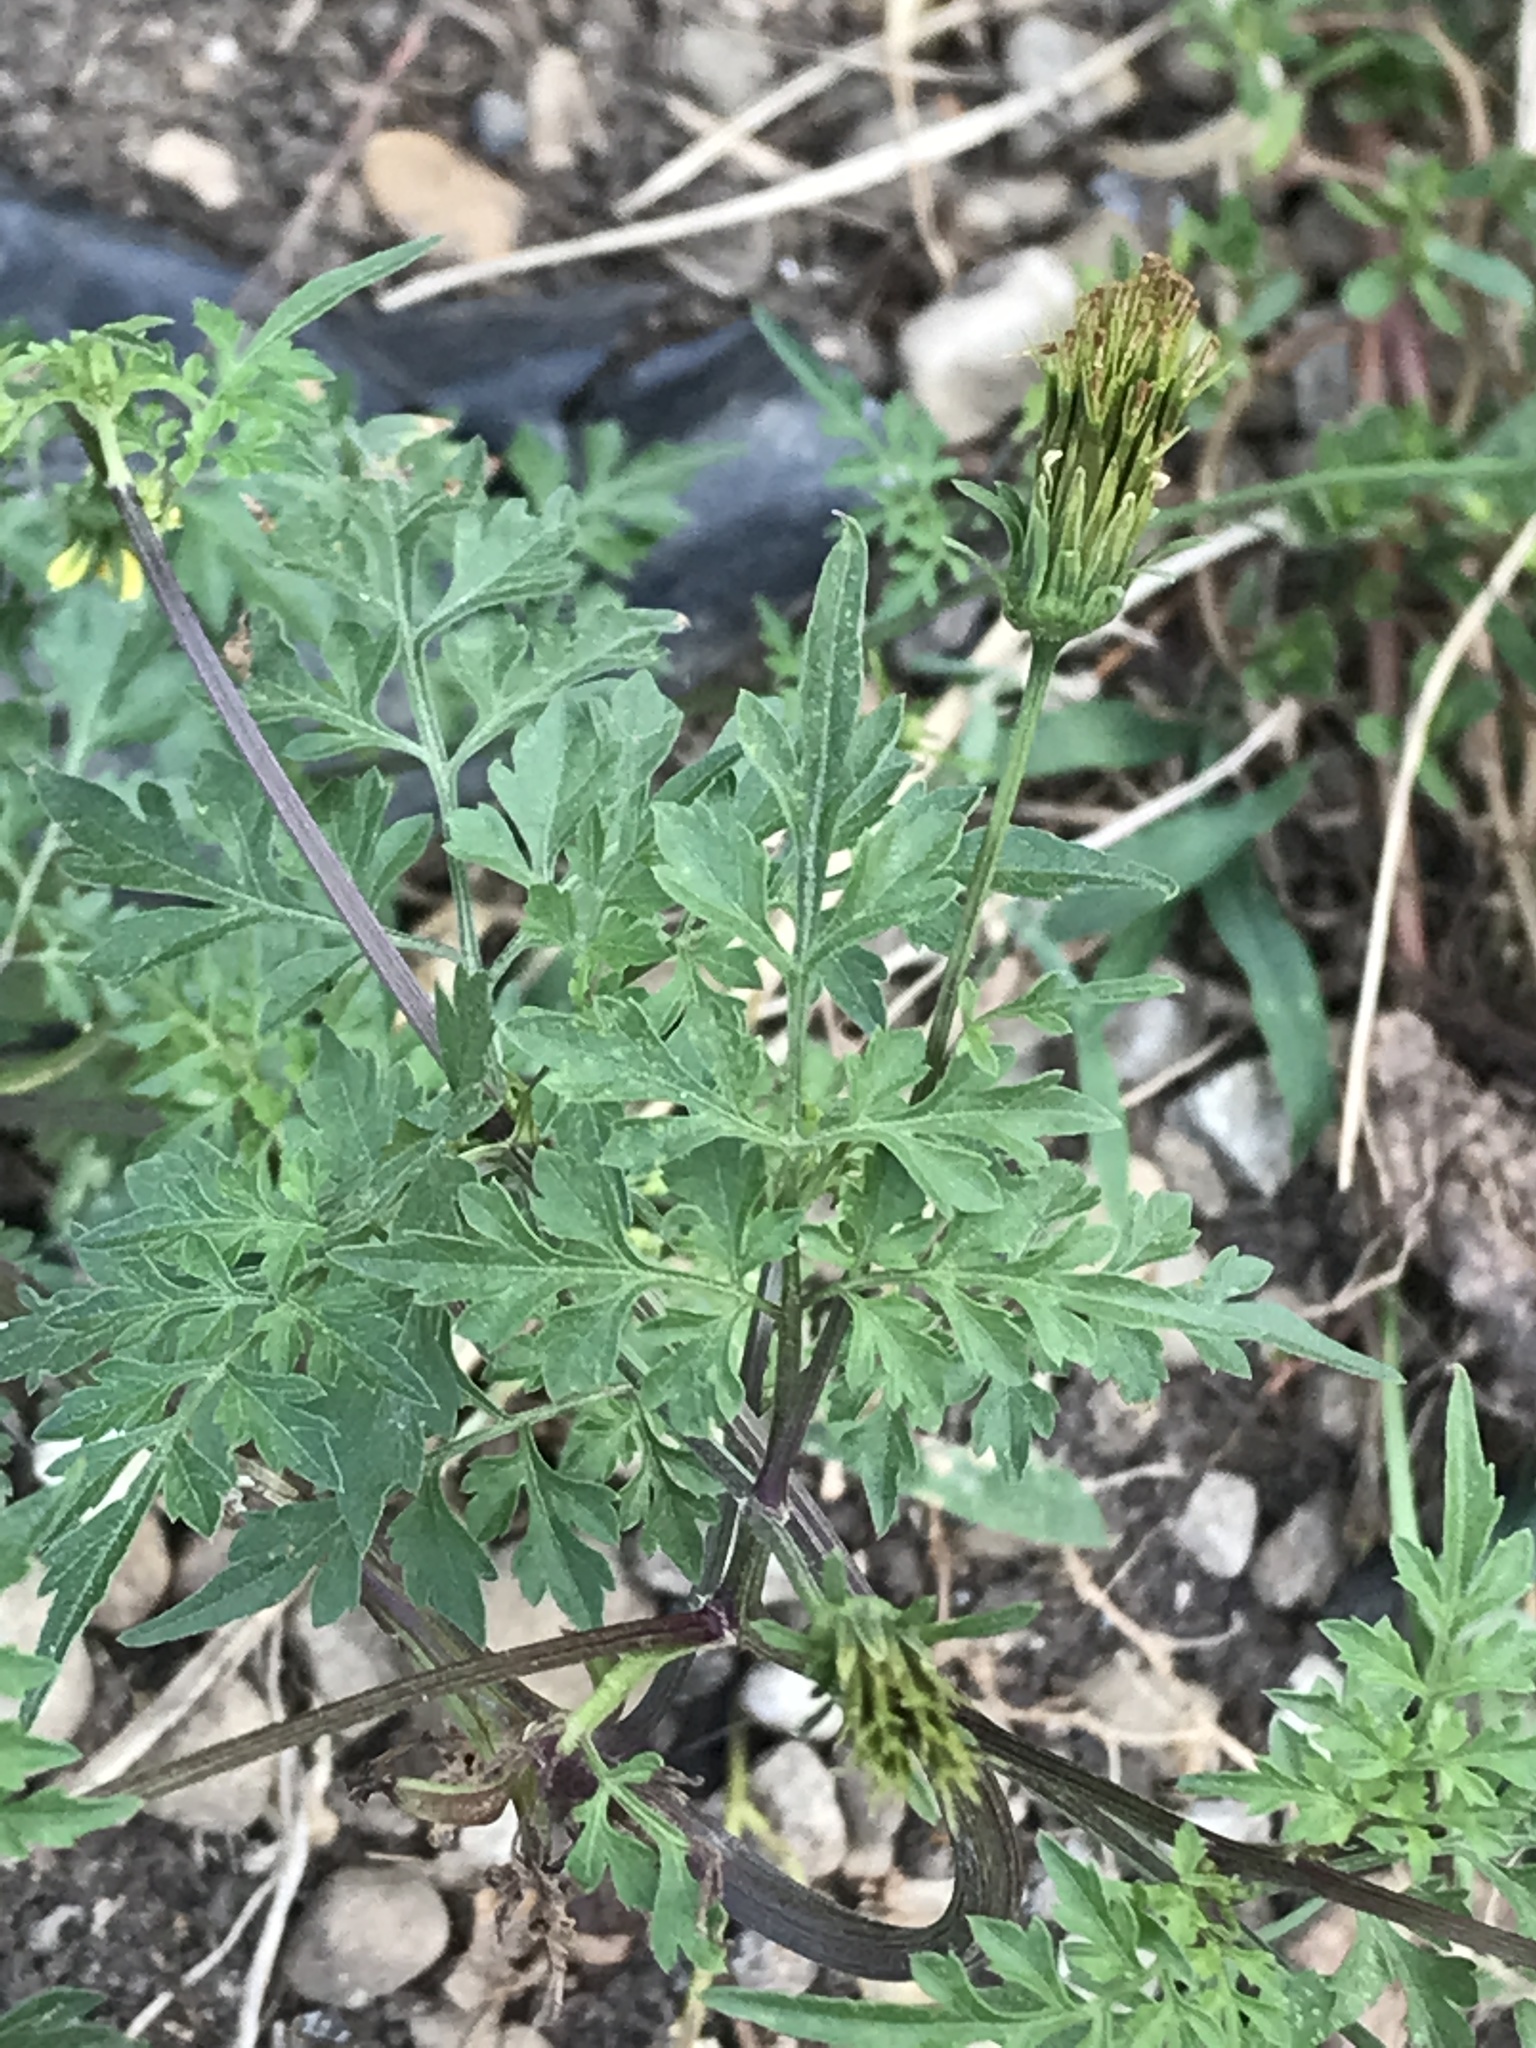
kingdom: Plantae
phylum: Tracheophyta
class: Magnoliopsida
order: Asterales
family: Asteraceae
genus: Bidens
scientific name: Bidens bipinnata
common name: Spanish-needles
